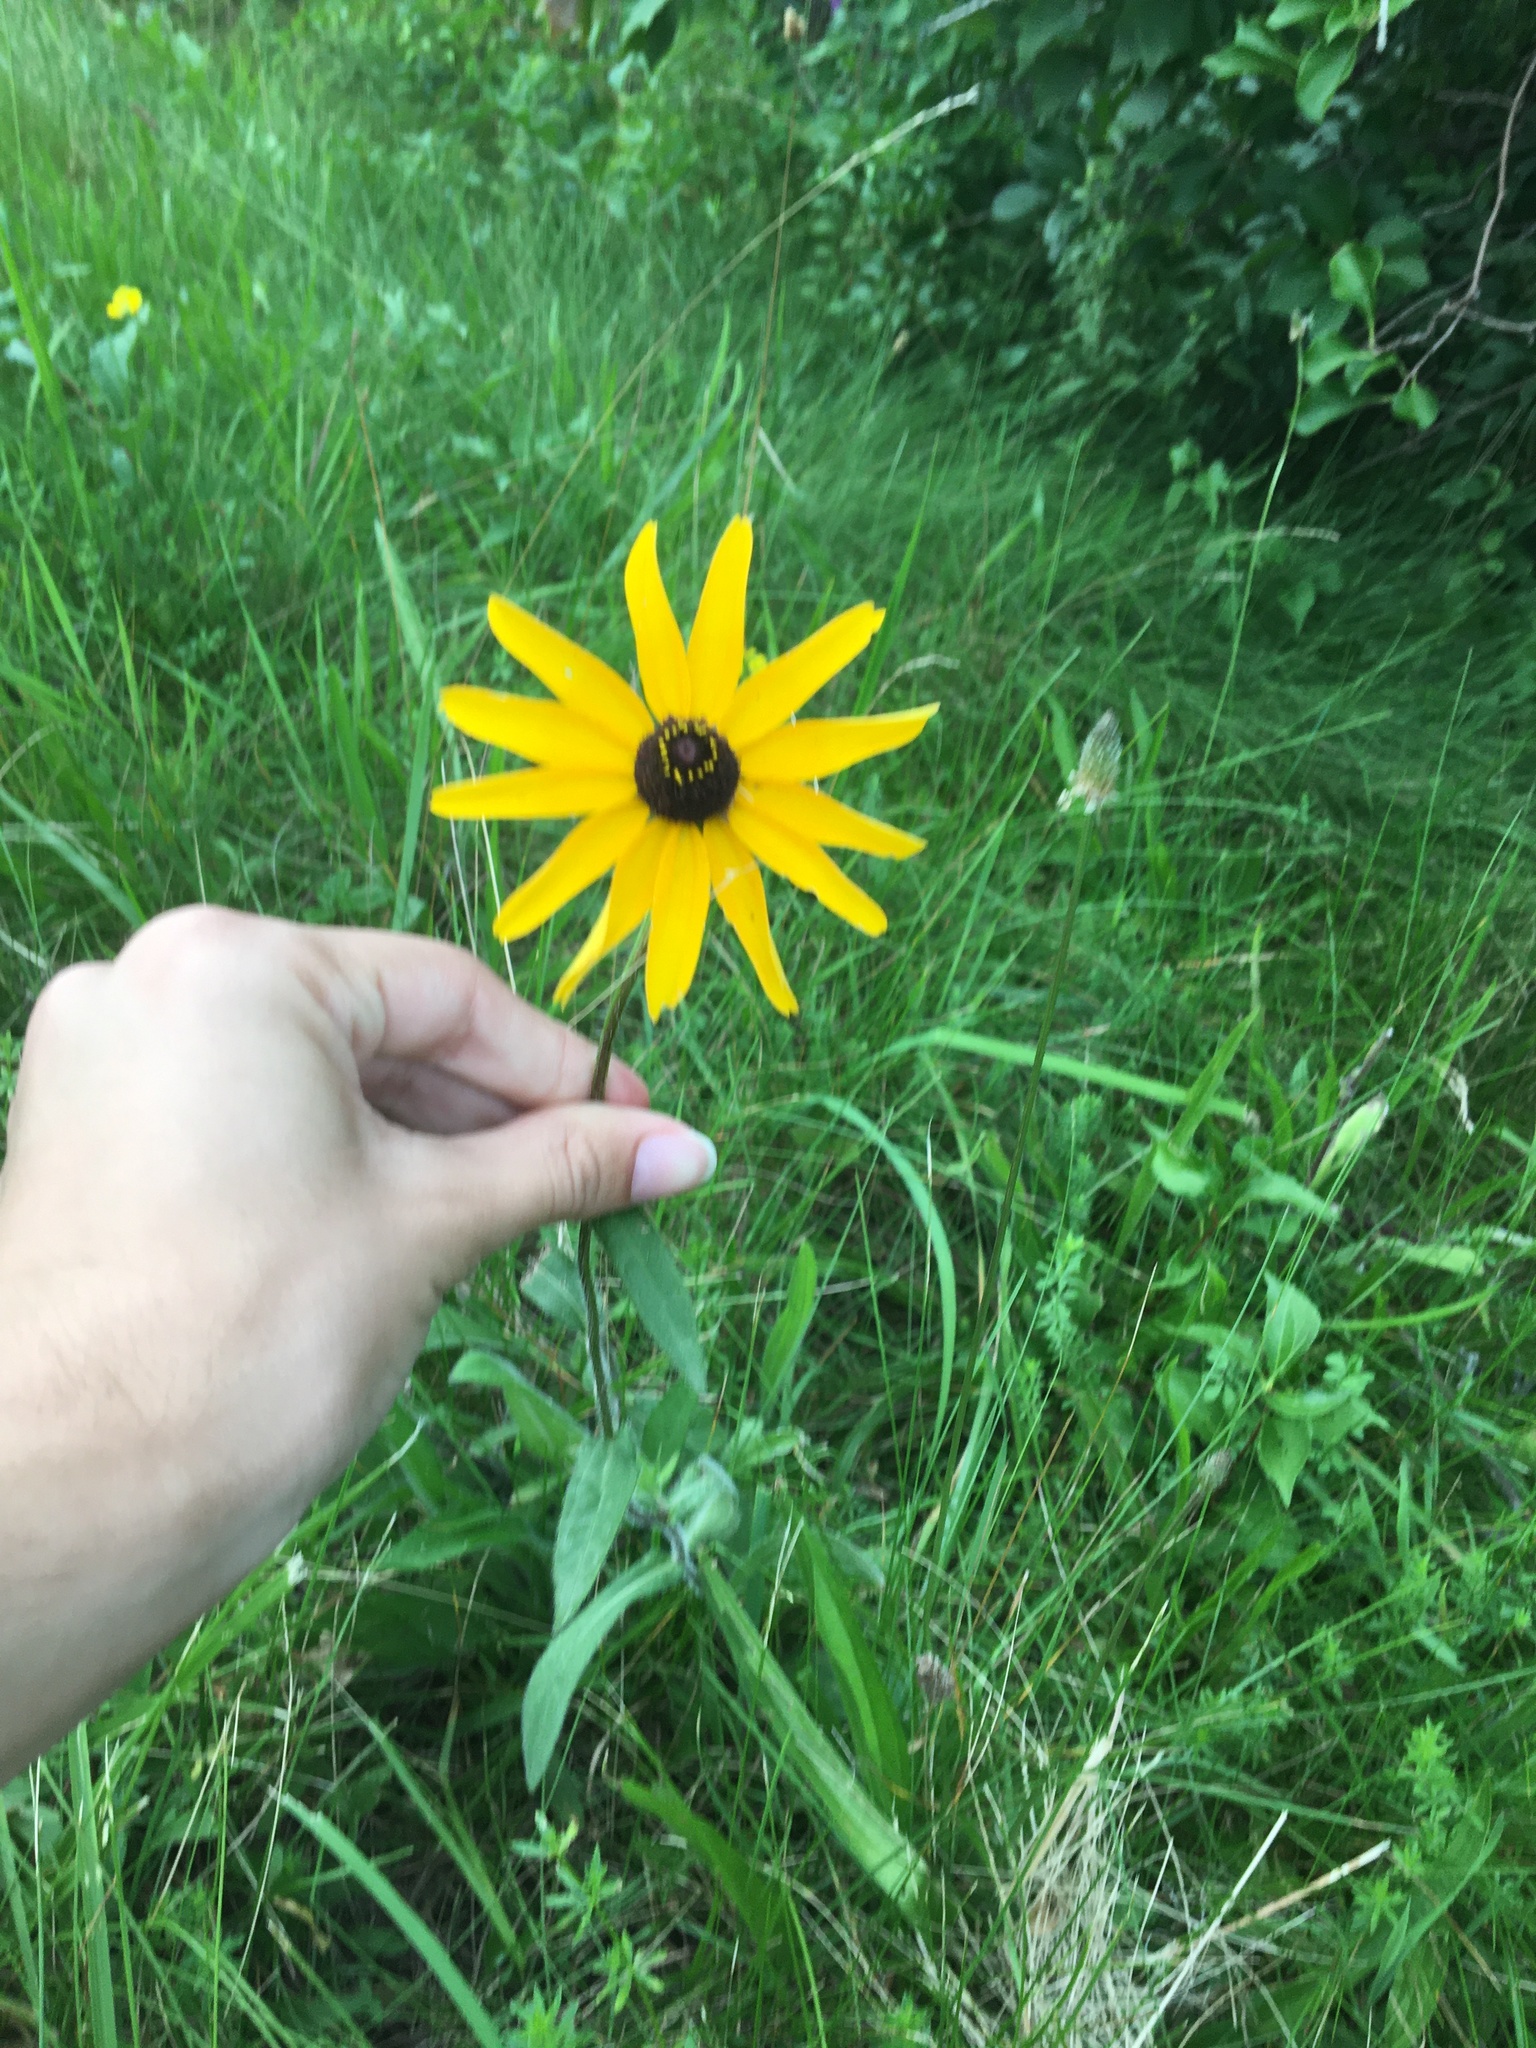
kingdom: Plantae
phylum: Tracheophyta
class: Magnoliopsida
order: Asterales
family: Asteraceae
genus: Rudbeckia
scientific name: Rudbeckia hirta
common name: Black-eyed-susan
